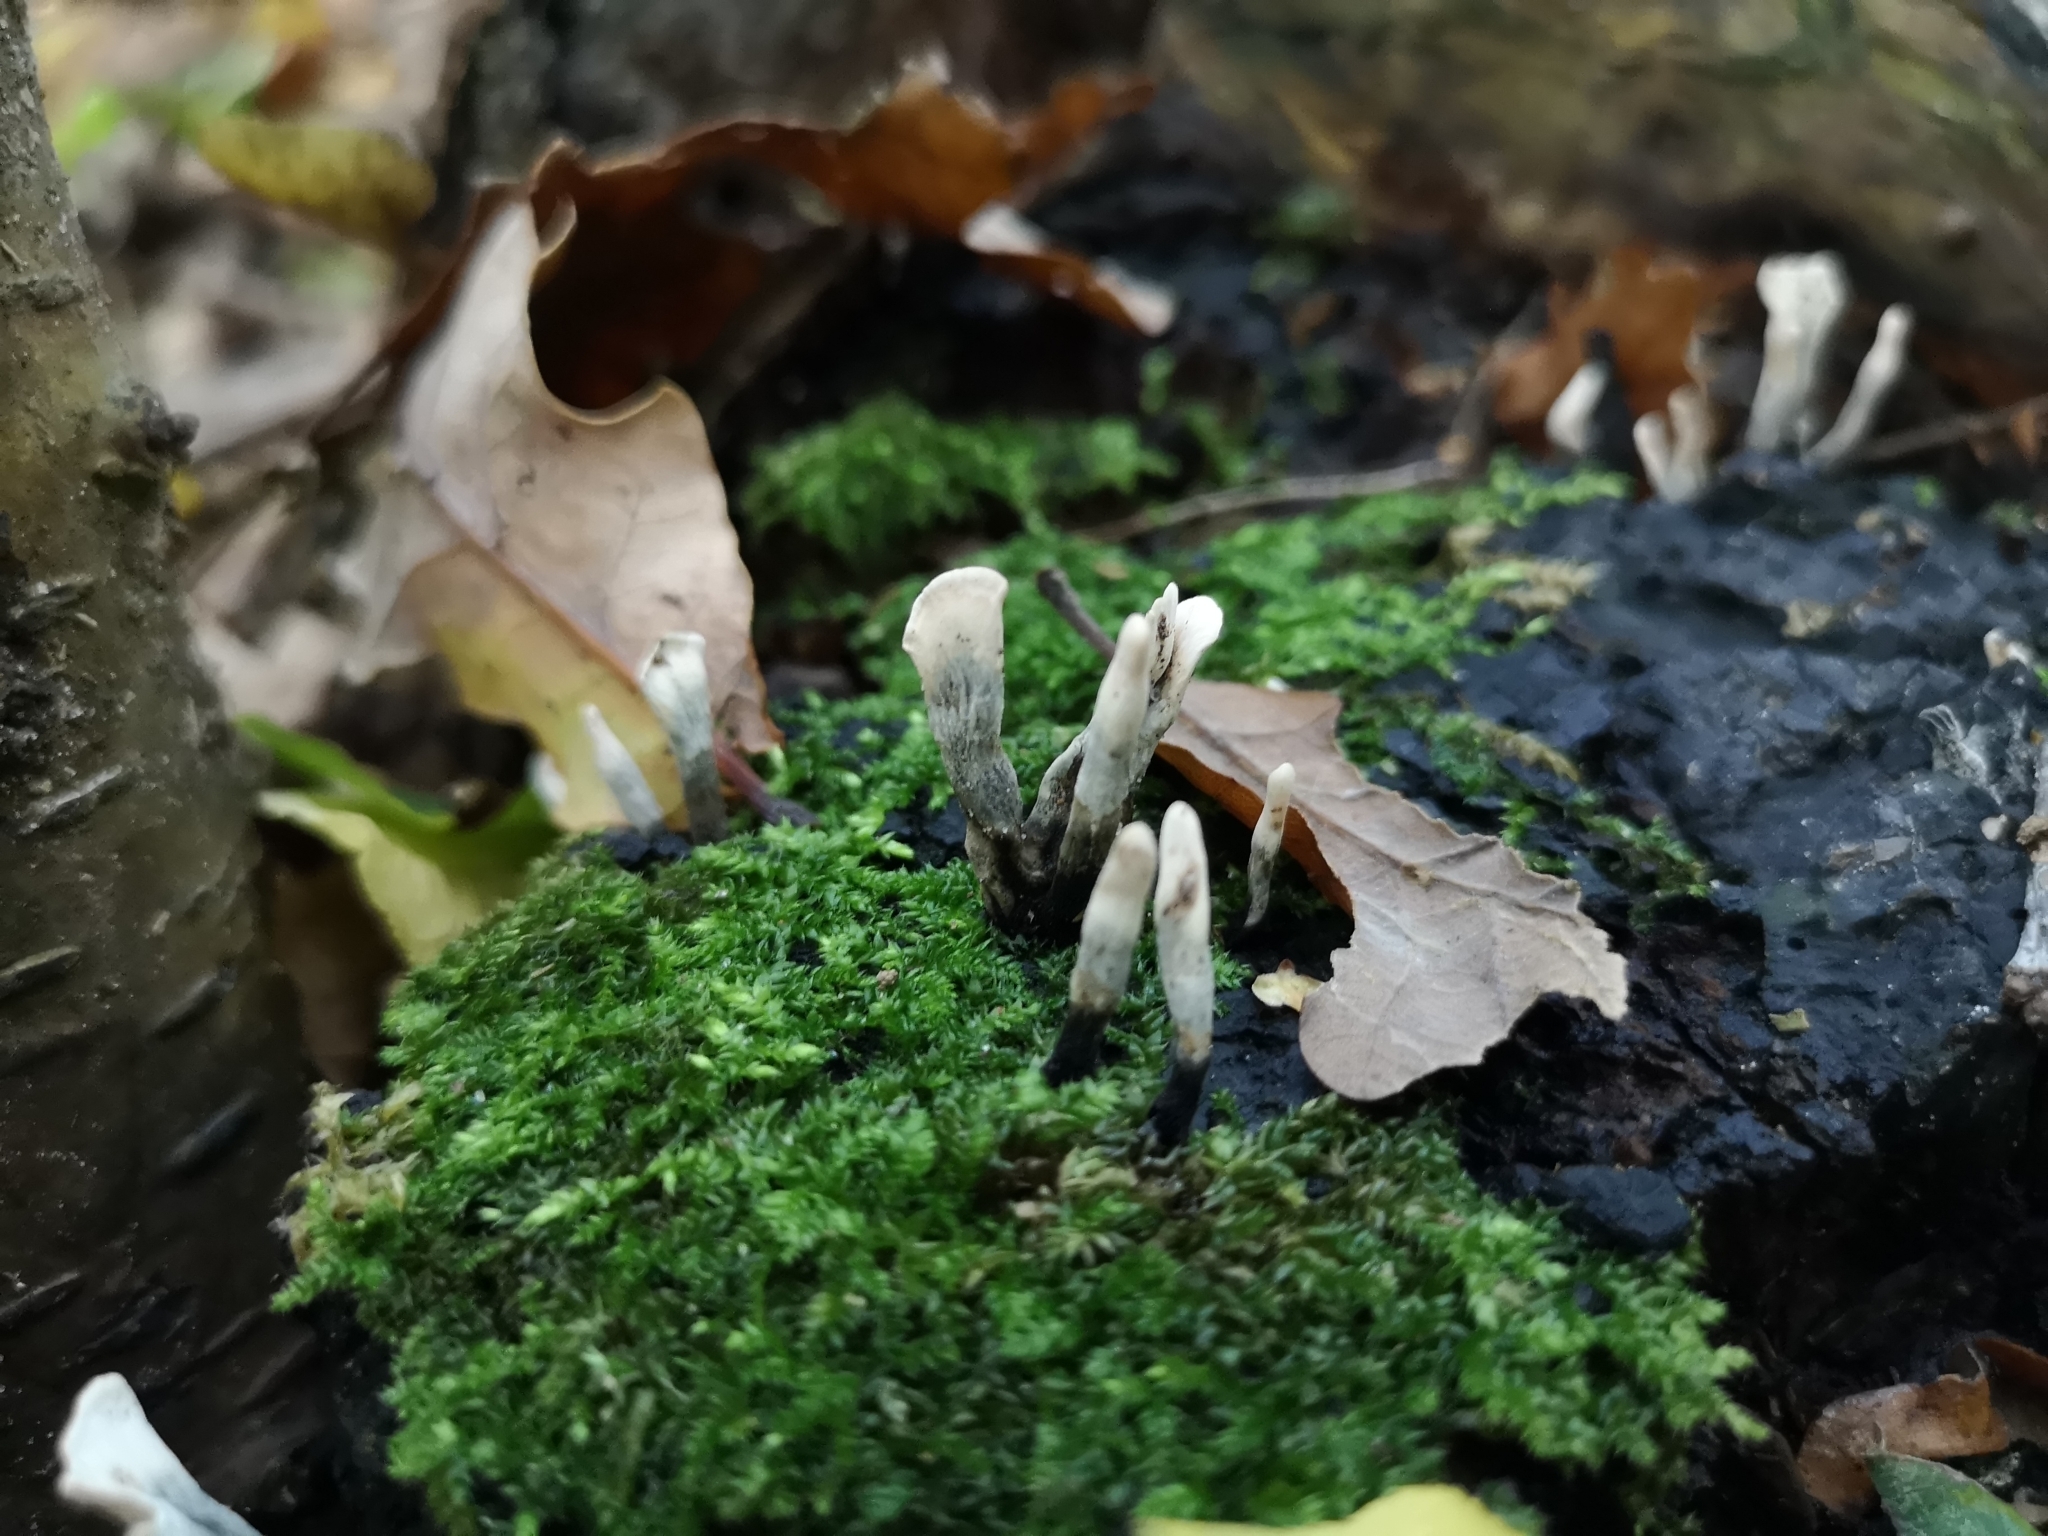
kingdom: Fungi
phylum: Ascomycota
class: Sordariomycetes
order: Xylariales
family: Xylariaceae
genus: Xylaria
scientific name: Xylaria hypoxylon
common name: Candle-snuff fungus
